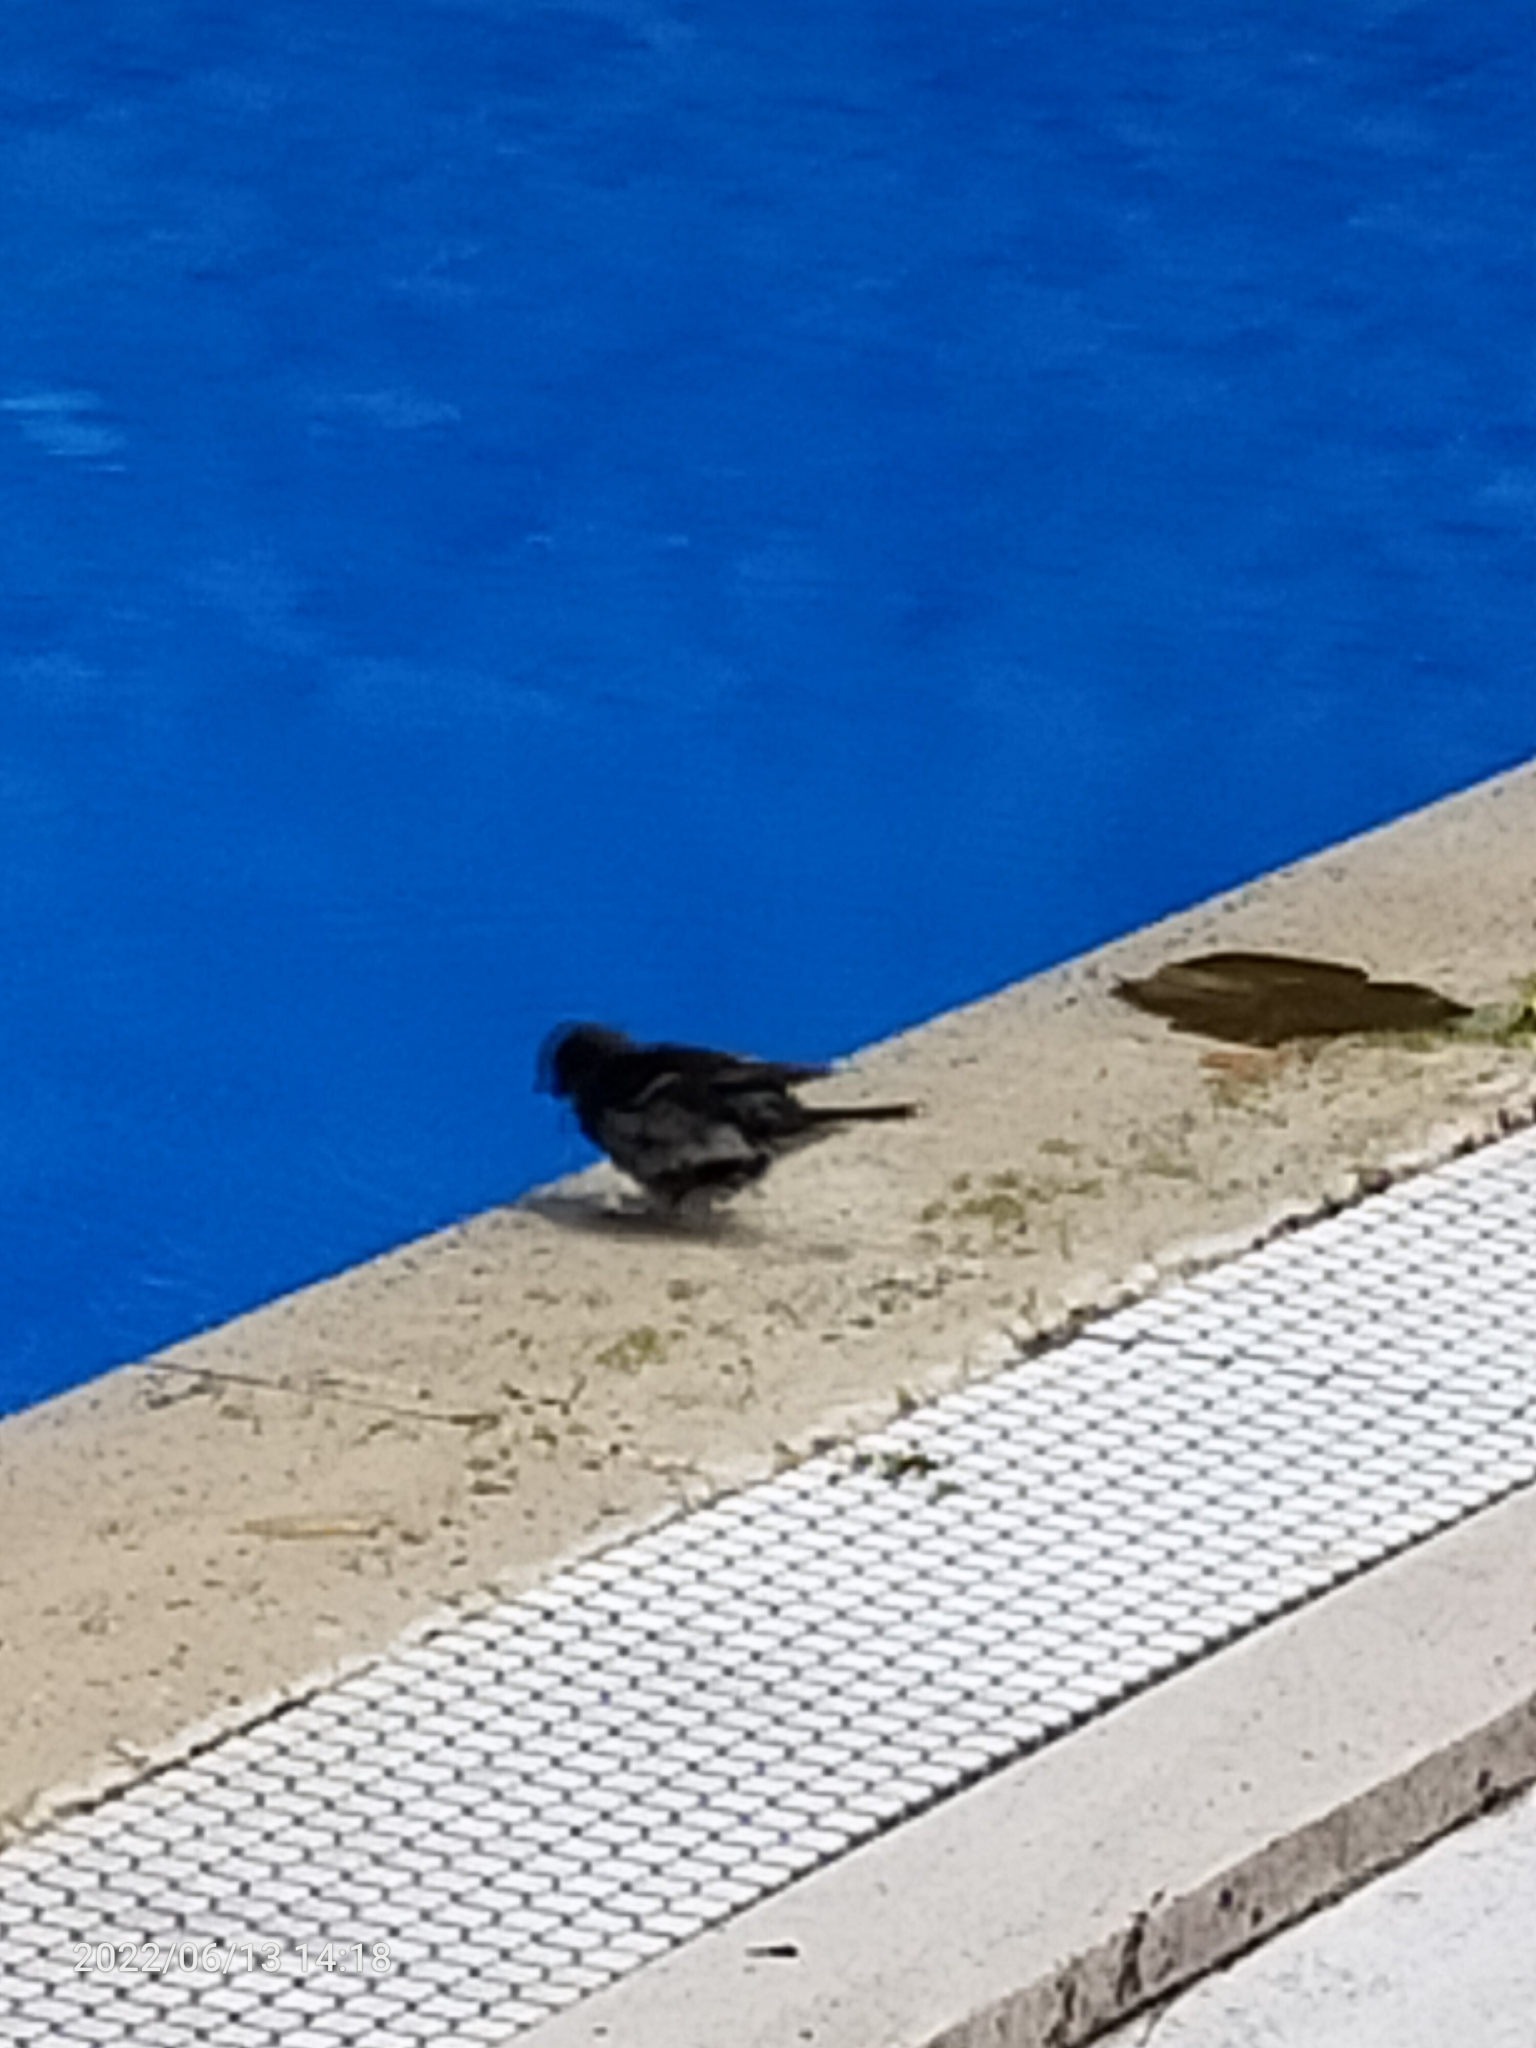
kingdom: Animalia
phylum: Chordata
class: Aves
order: Passeriformes
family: Passeridae
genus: Passer
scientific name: Passer montanus
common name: Eurasian tree sparrow
